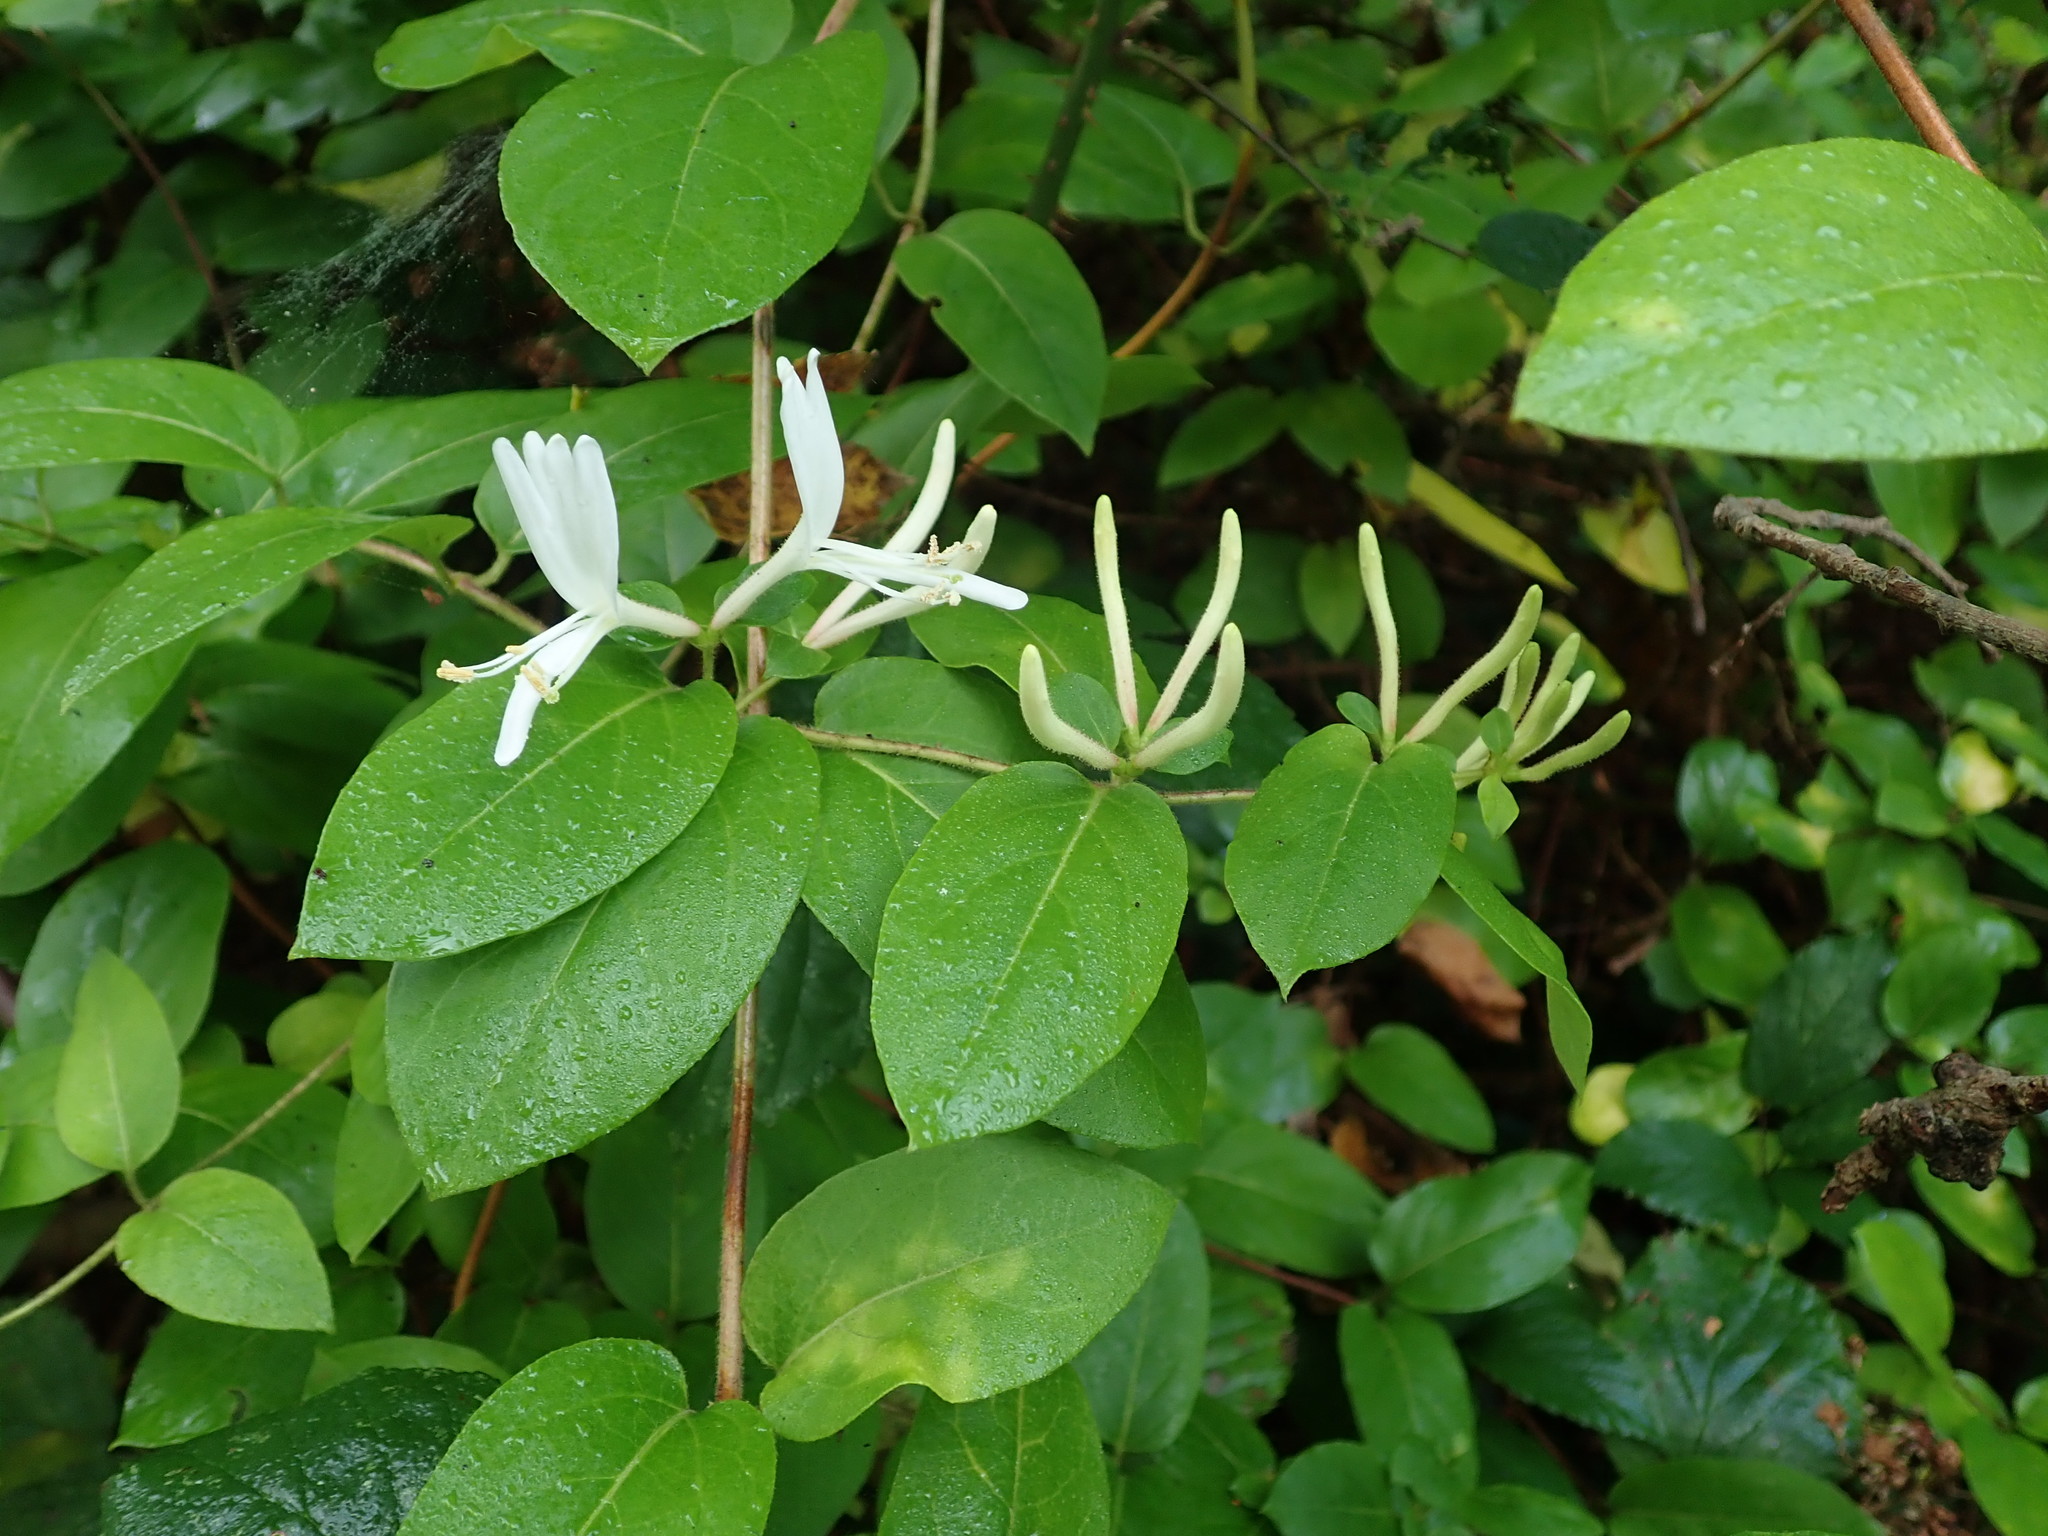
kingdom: Plantae
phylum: Tracheophyta
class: Magnoliopsida
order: Dipsacales
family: Caprifoliaceae
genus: Lonicera
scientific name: Lonicera japonica
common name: Japanese honeysuckle
